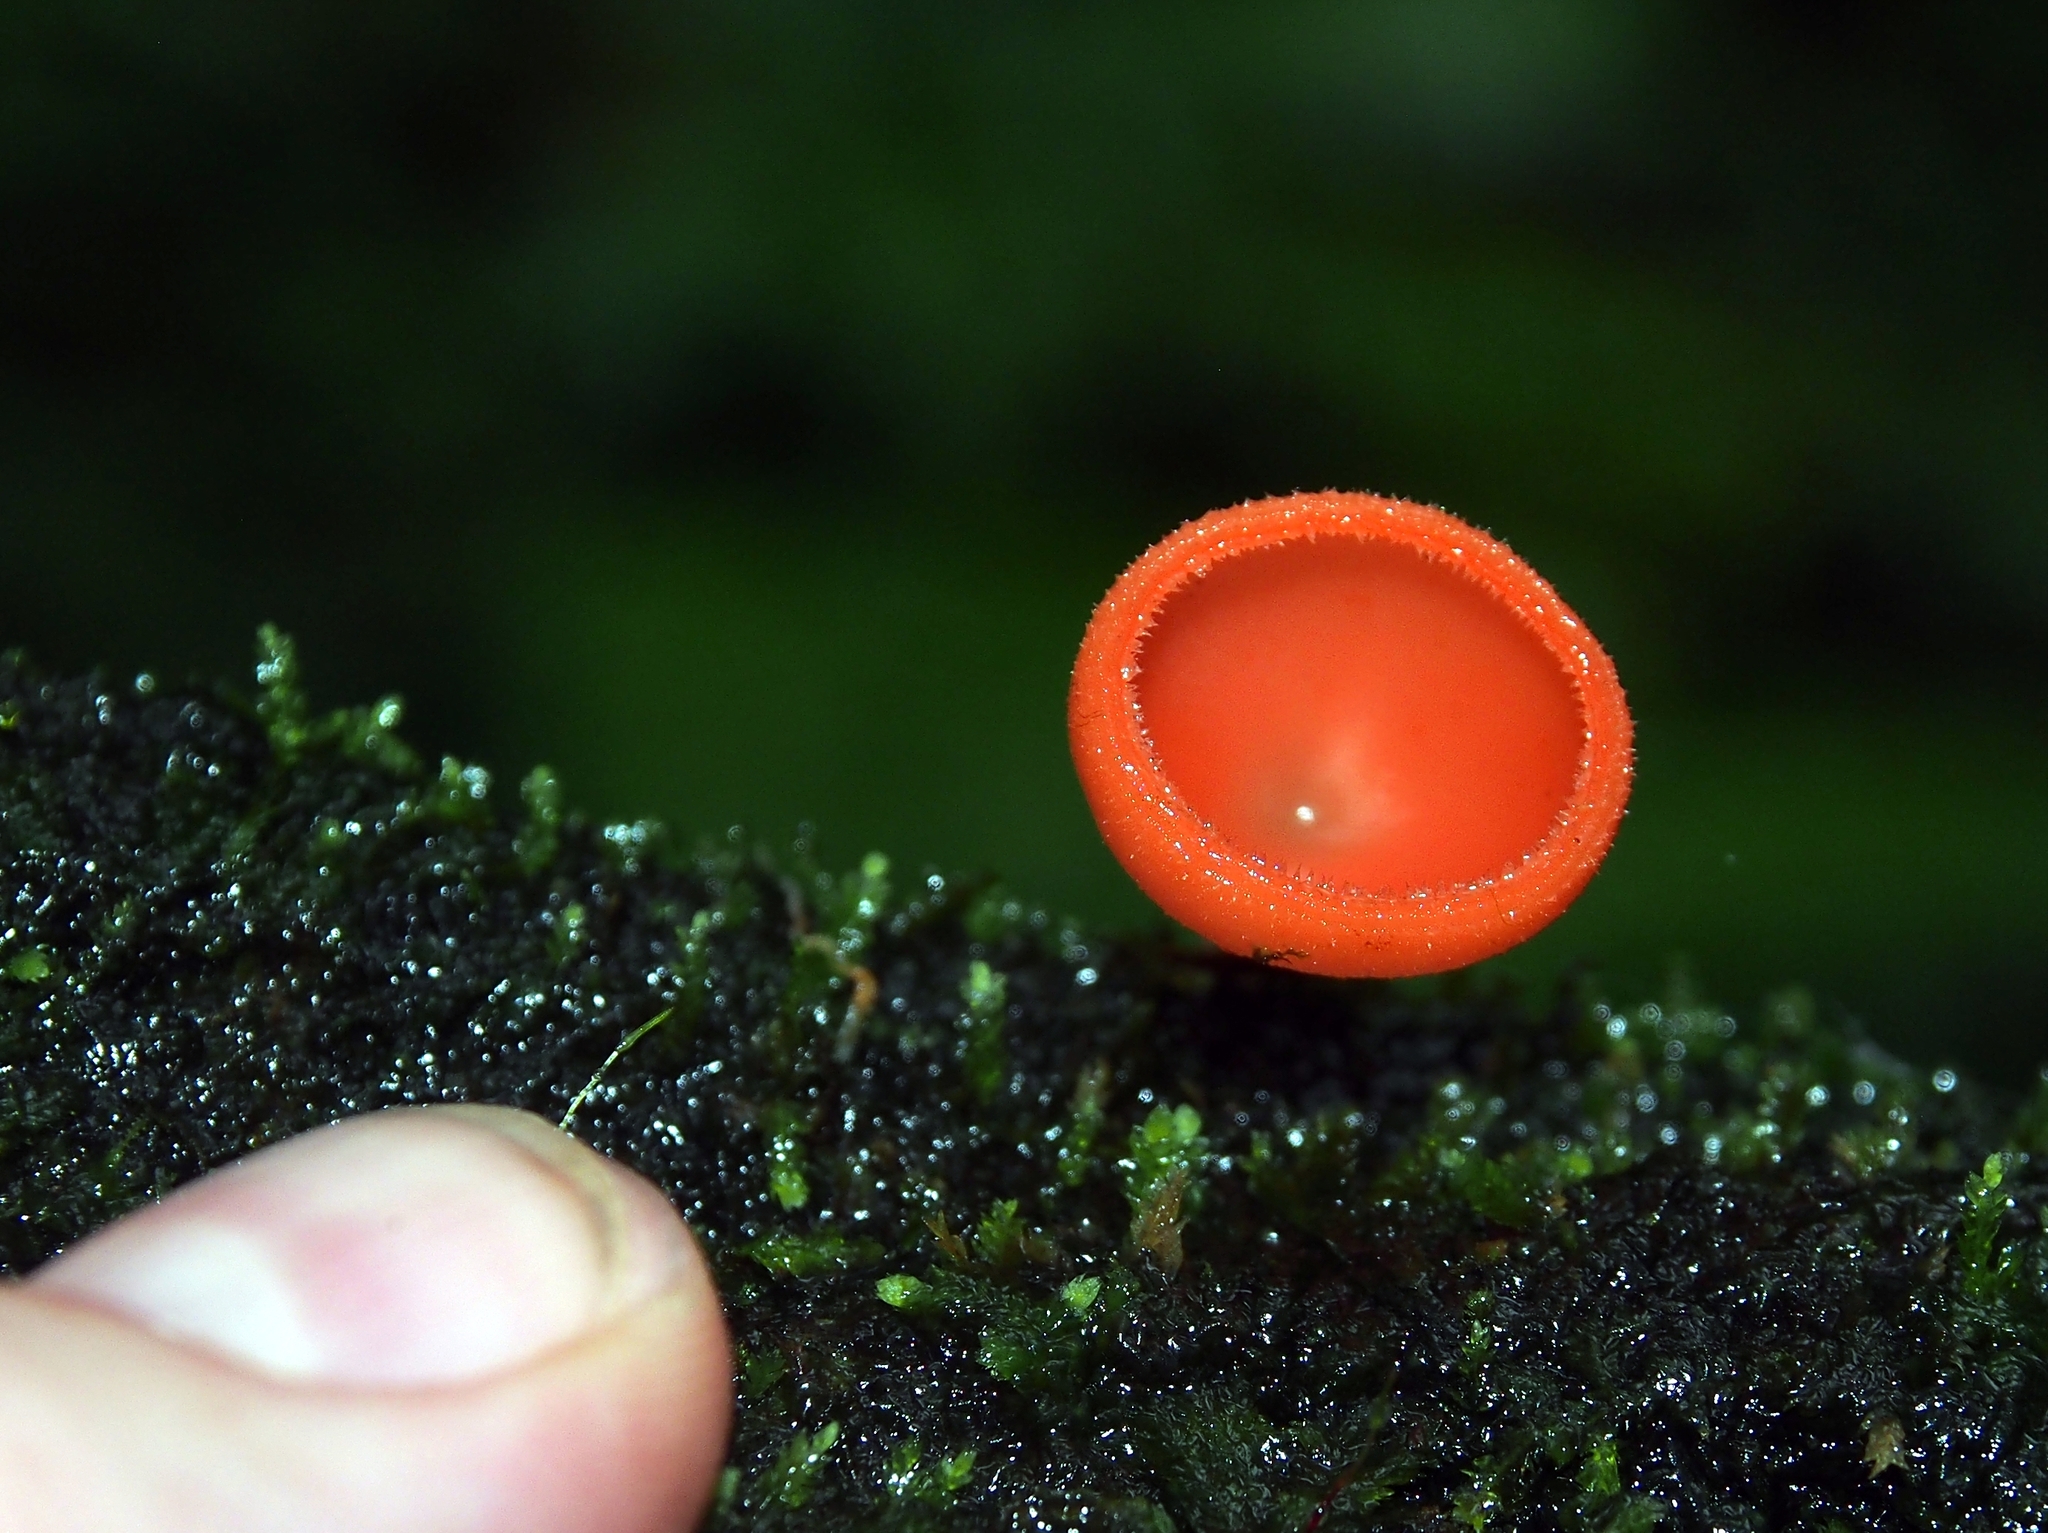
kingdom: Fungi
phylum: Ascomycota
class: Pezizomycetes
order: Pezizales
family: Sarcoscyphaceae
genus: Cookeina
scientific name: Cookeina speciosa
